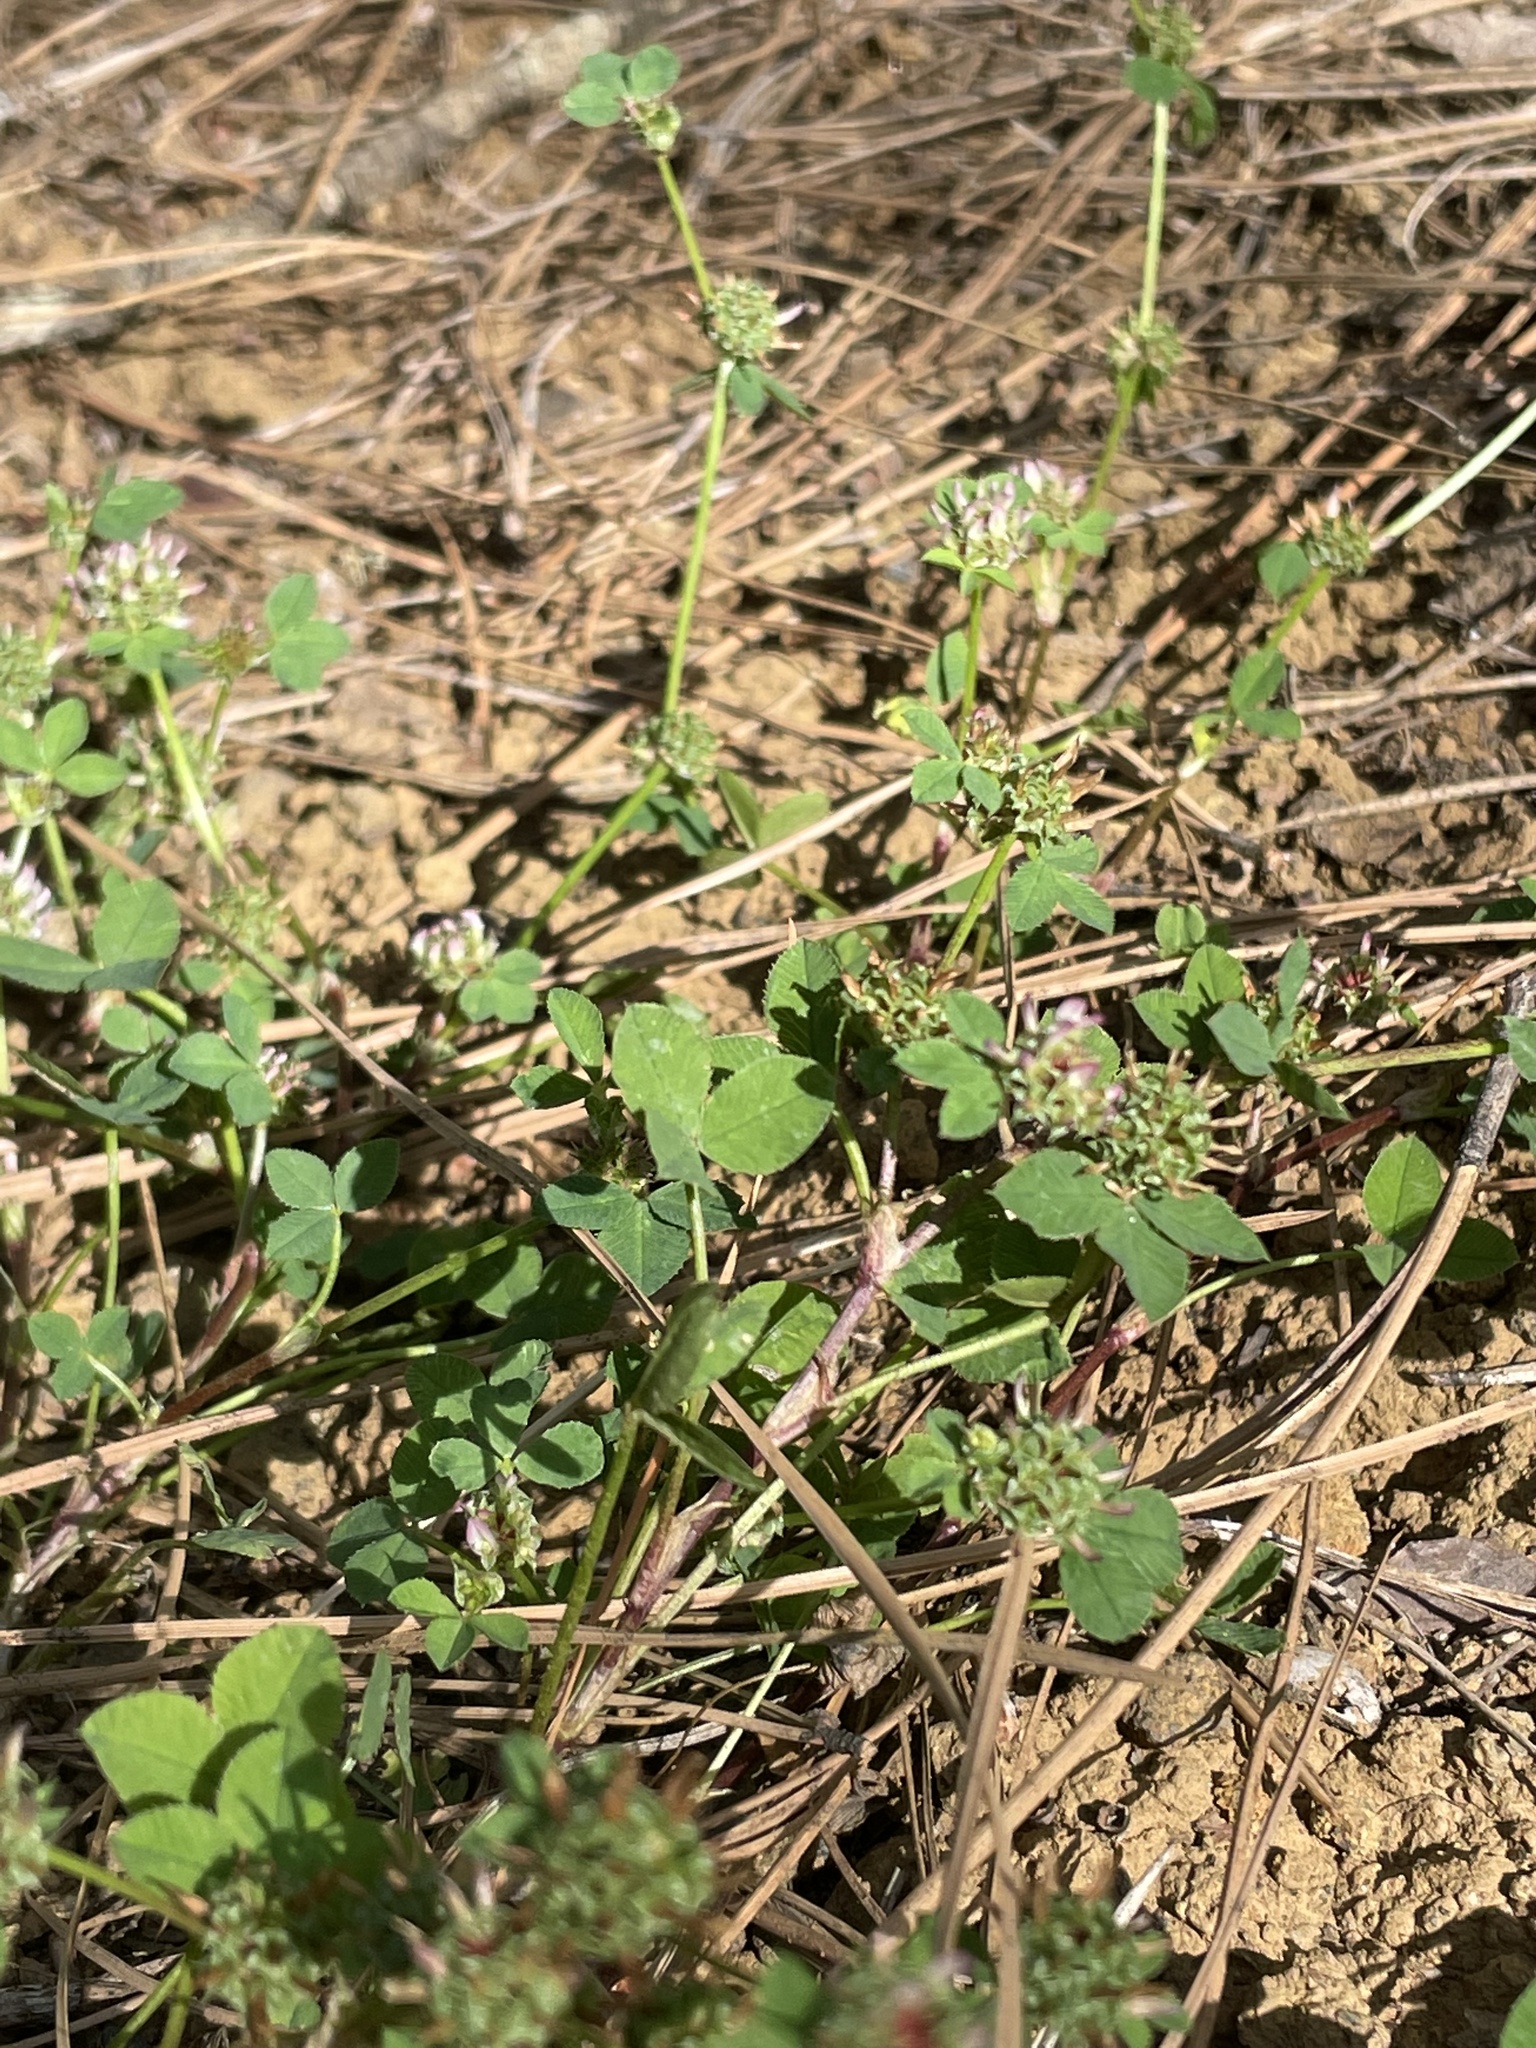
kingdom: Plantae
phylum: Tracheophyta
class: Magnoliopsida
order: Fabales
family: Fabaceae
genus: Trifolium
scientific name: Trifolium glomeratum
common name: Clustered clover
